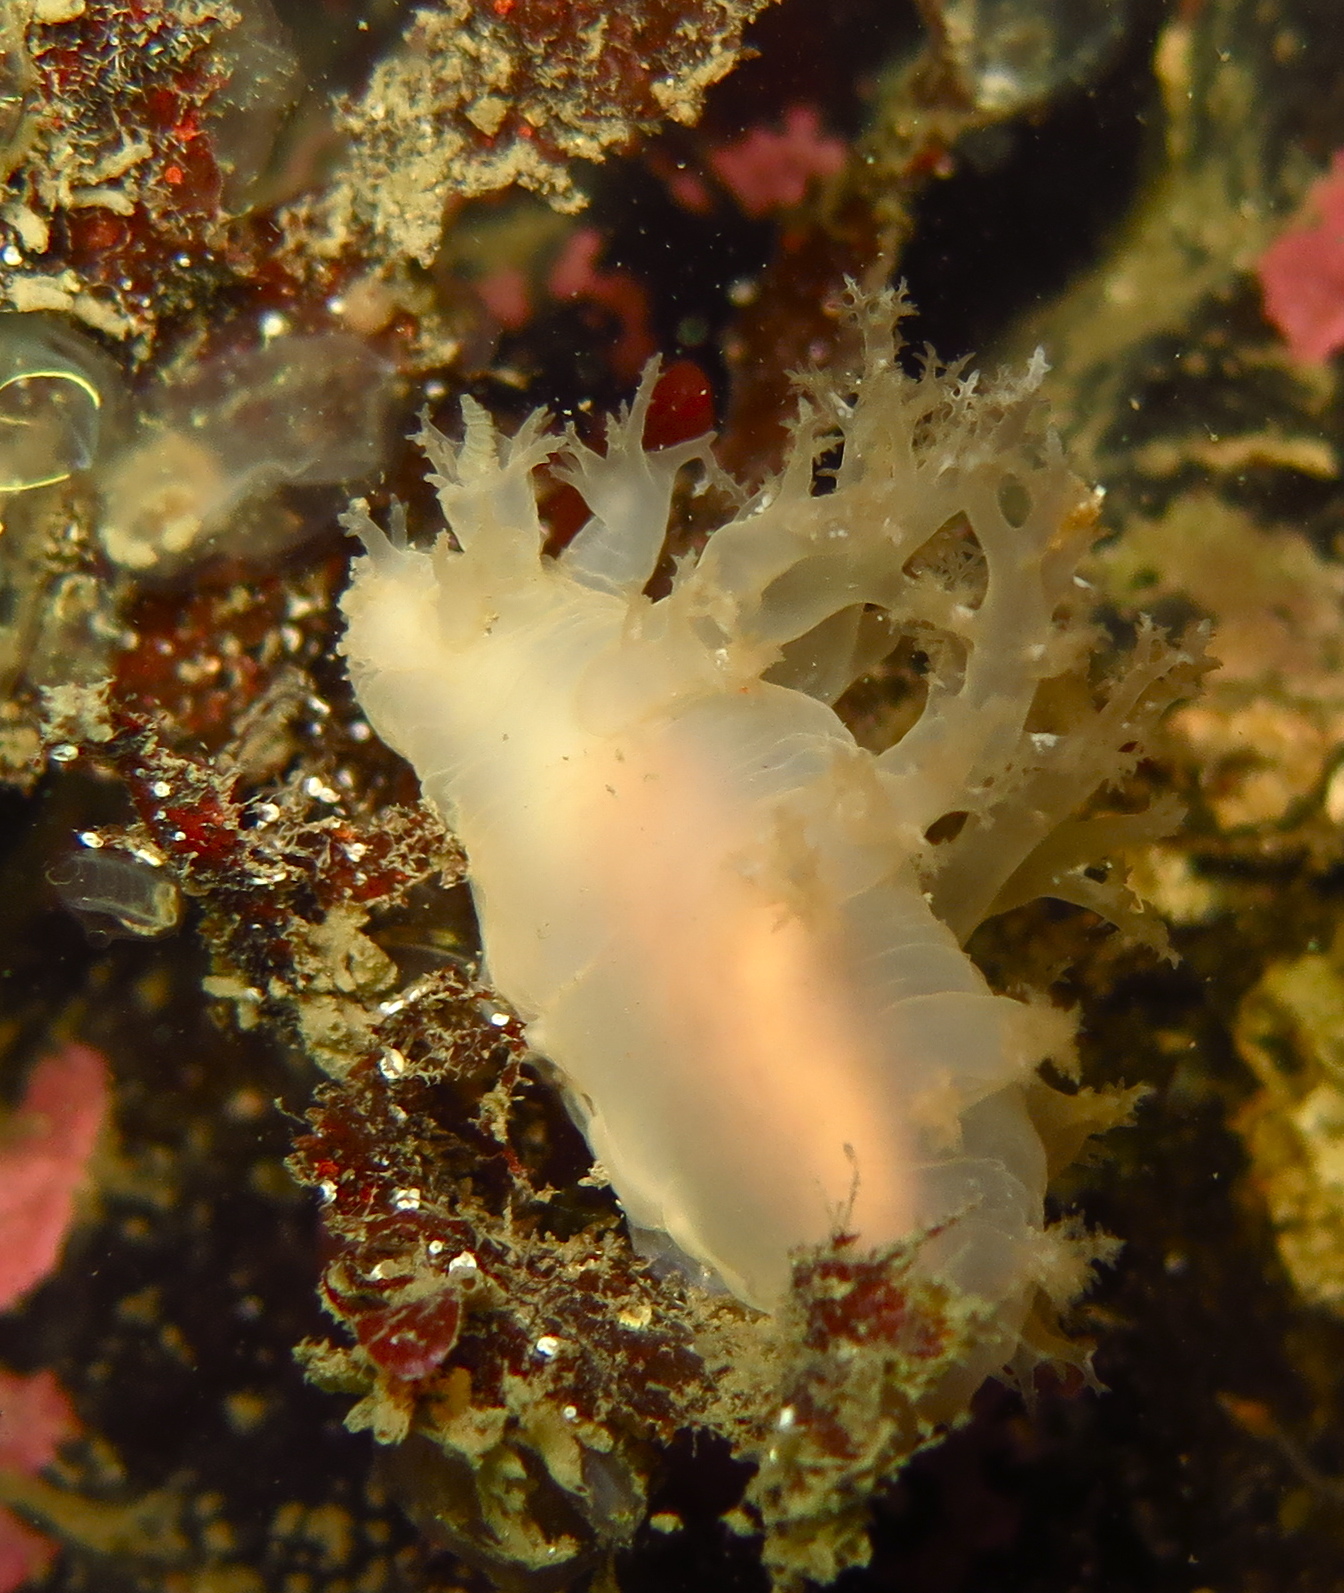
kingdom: Animalia
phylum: Mollusca
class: Gastropoda
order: Nudibranchia
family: Dendronotidae
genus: Dendronotus
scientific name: Dendronotus frondosus
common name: Bushy-backed nudibranch
